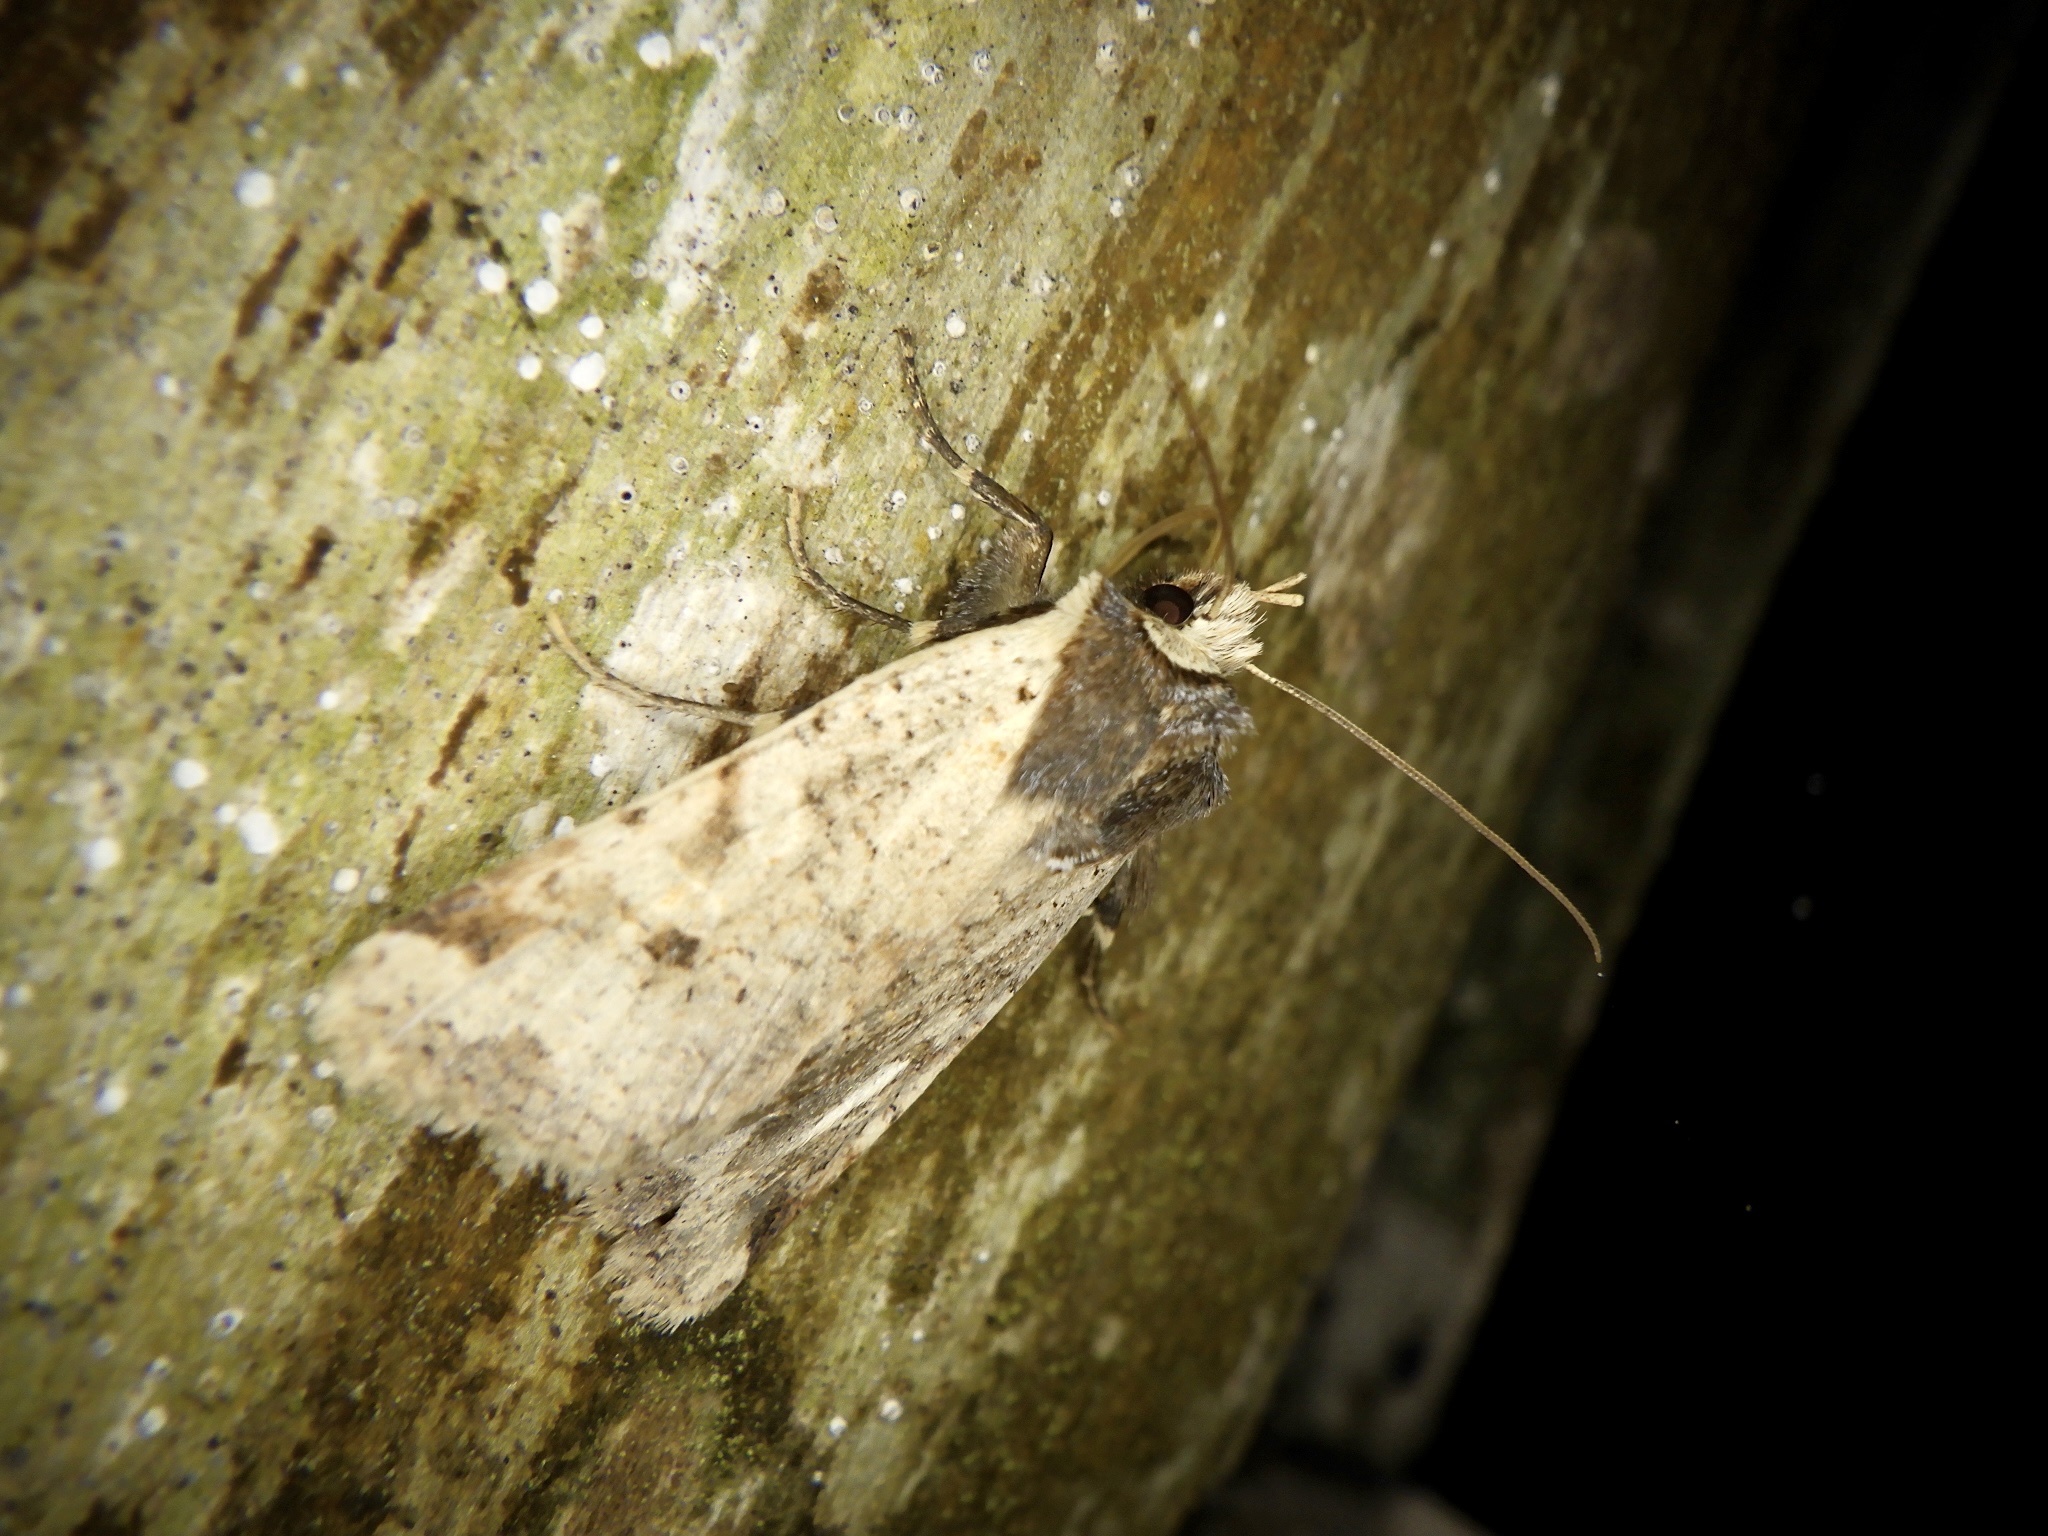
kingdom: Animalia
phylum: Arthropoda
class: Insecta
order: Lepidoptera
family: Noctuidae
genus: Rhynchaglaea
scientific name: Rhynchaglaea scitula
